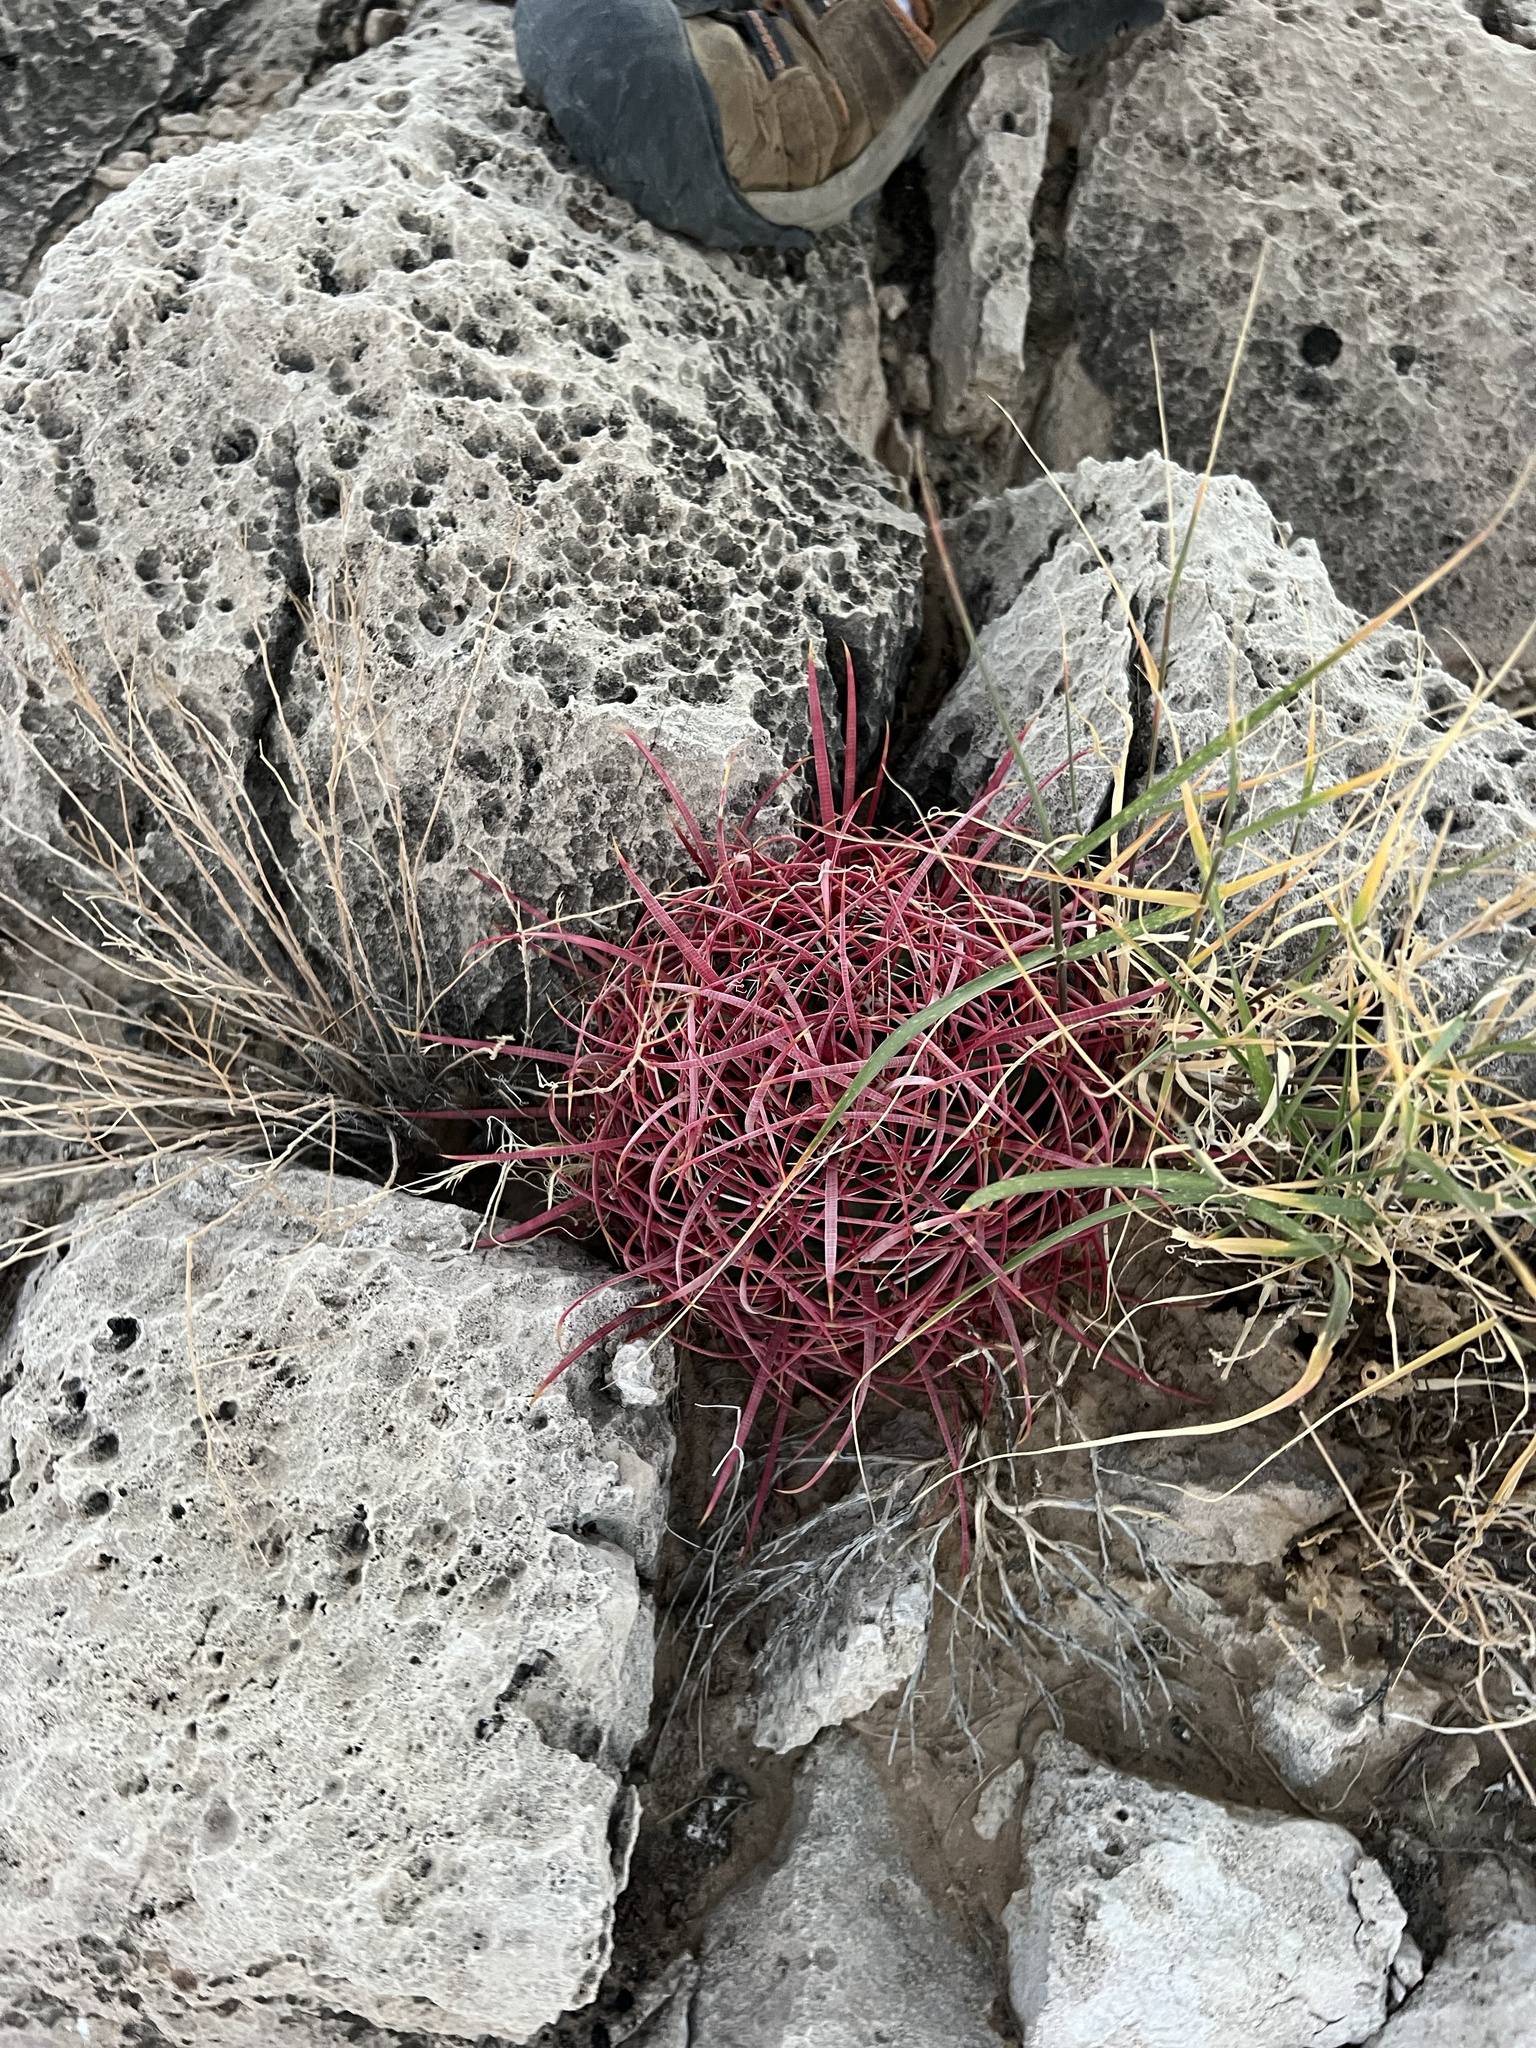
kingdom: Plantae
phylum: Tracheophyta
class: Magnoliopsida
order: Caryophyllales
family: Cactaceae
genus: Ferocactus
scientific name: Ferocactus cylindraceus
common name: California barrel cactus
